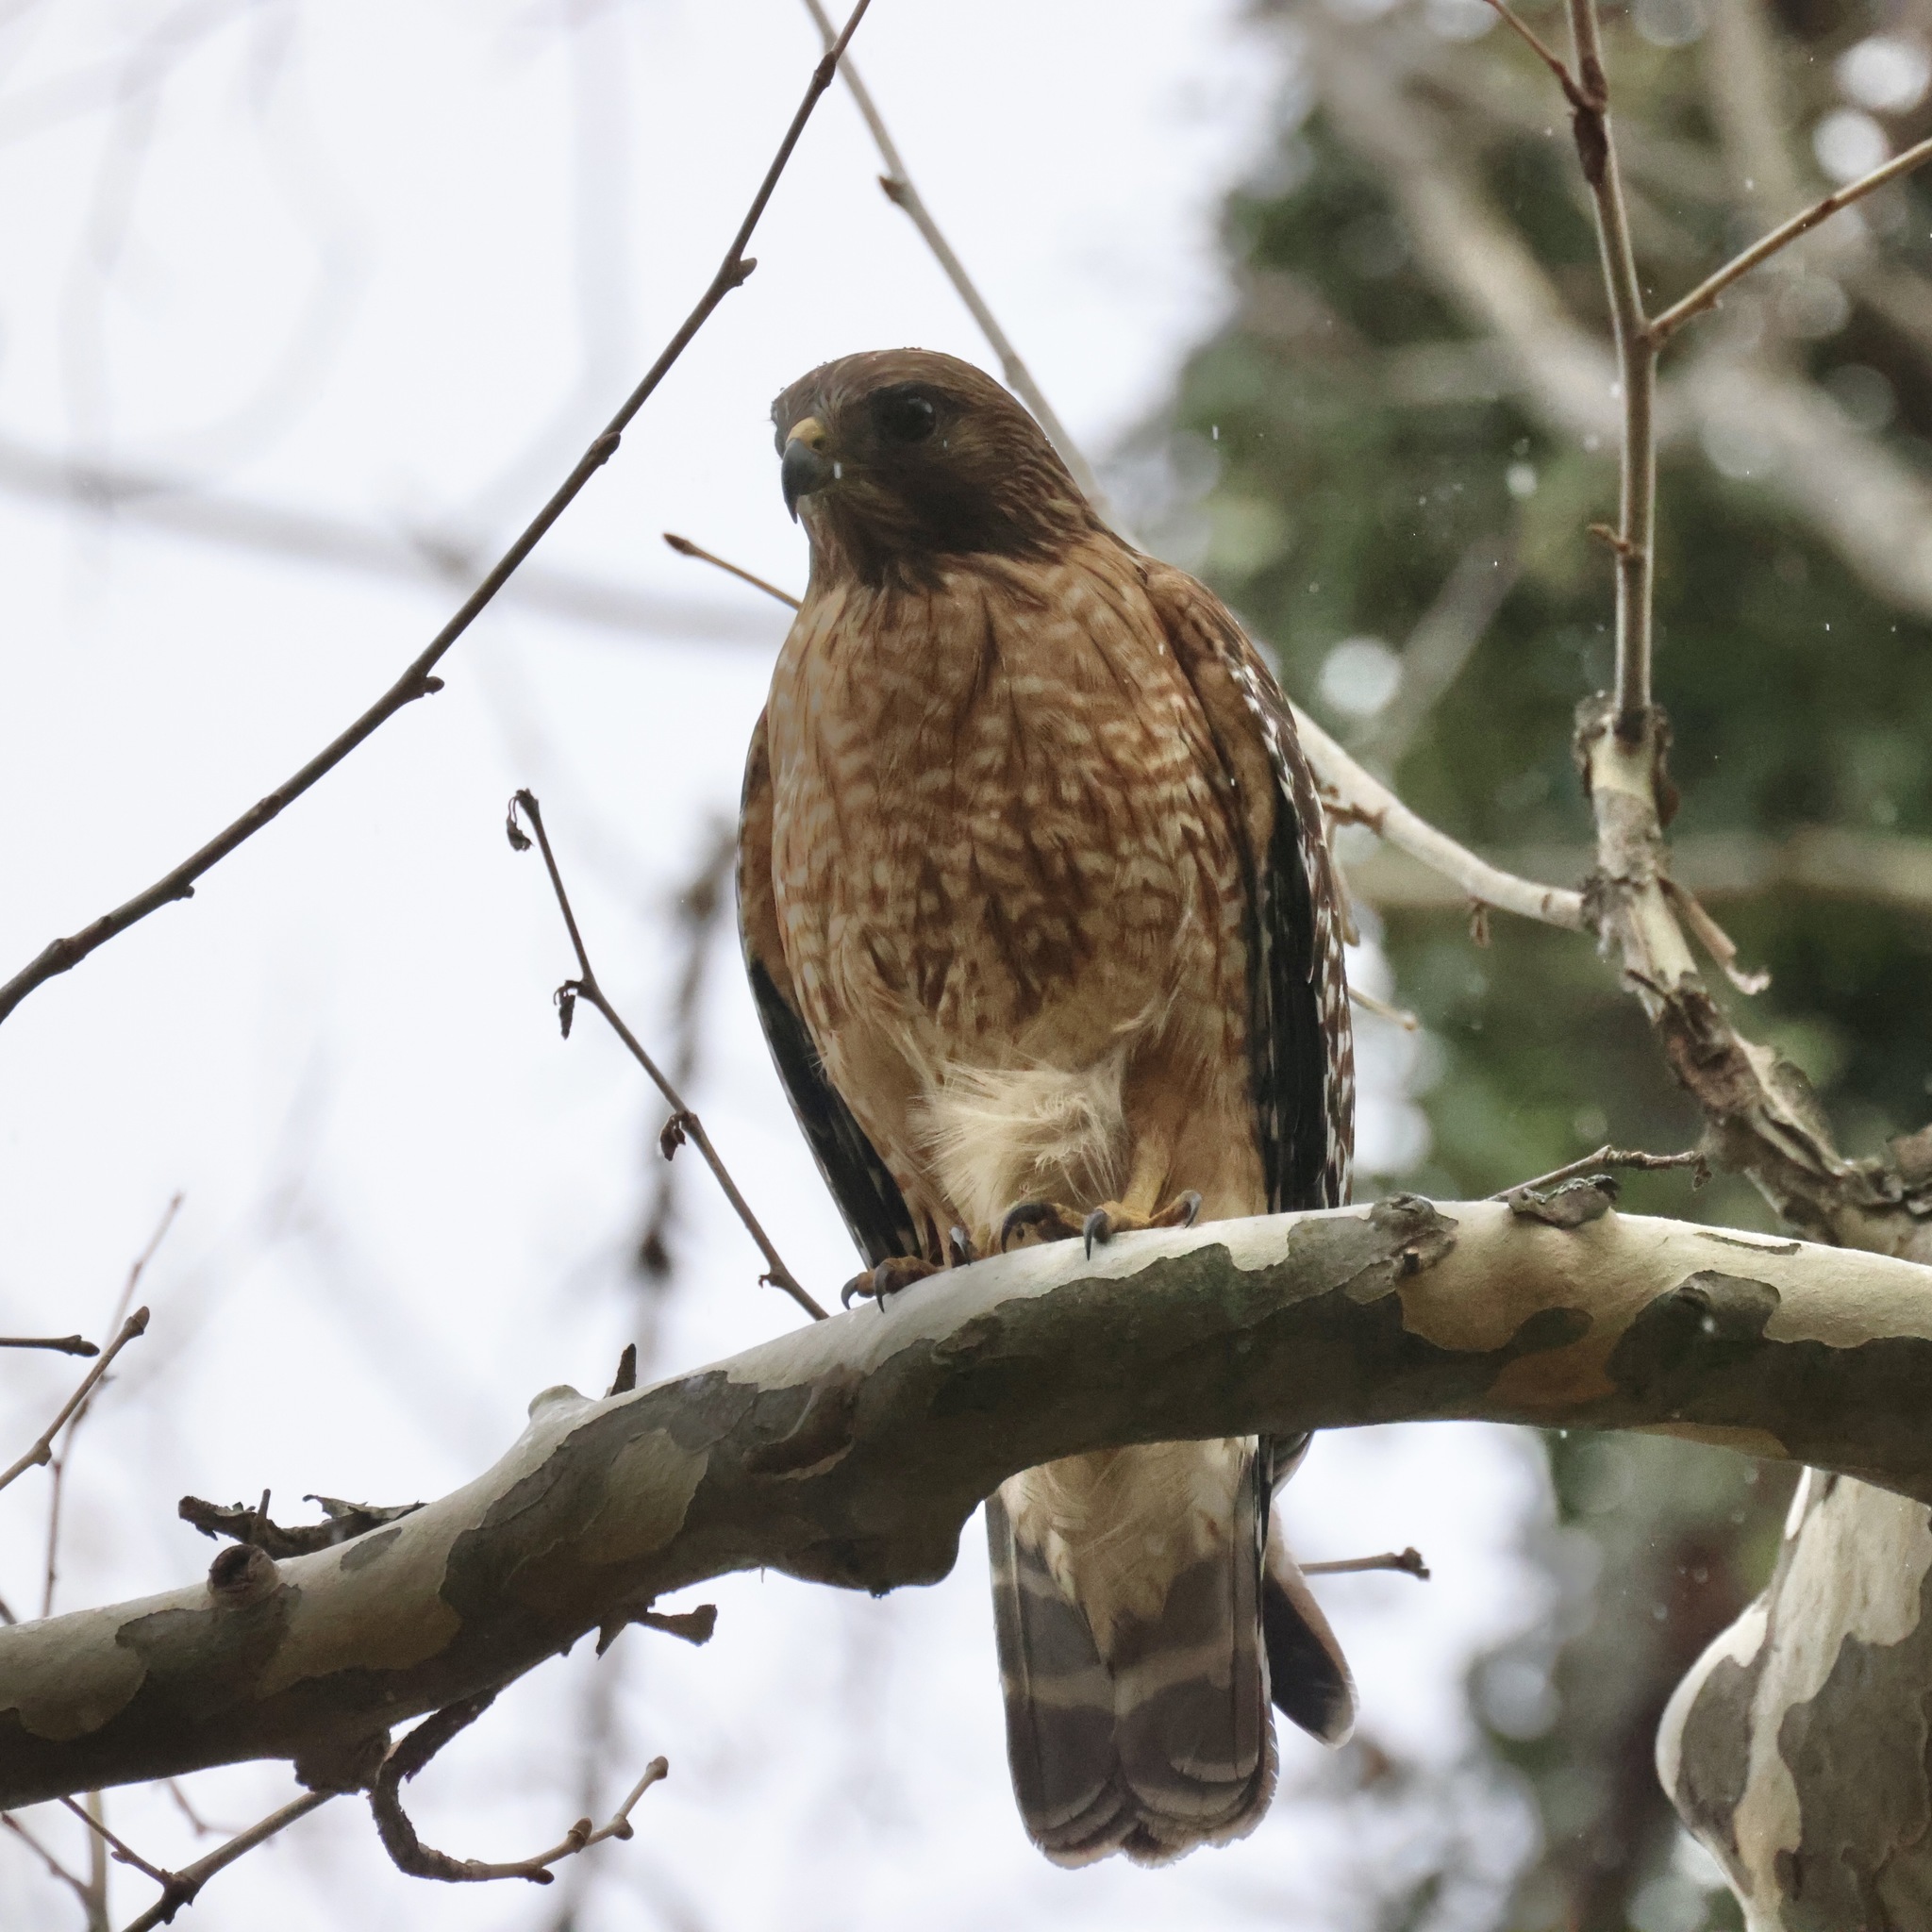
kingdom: Animalia
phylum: Chordata
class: Aves
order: Accipitriformes
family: Accipitridae
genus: Buteo
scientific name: Buteo lineatus
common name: Red-shouldered hawk
